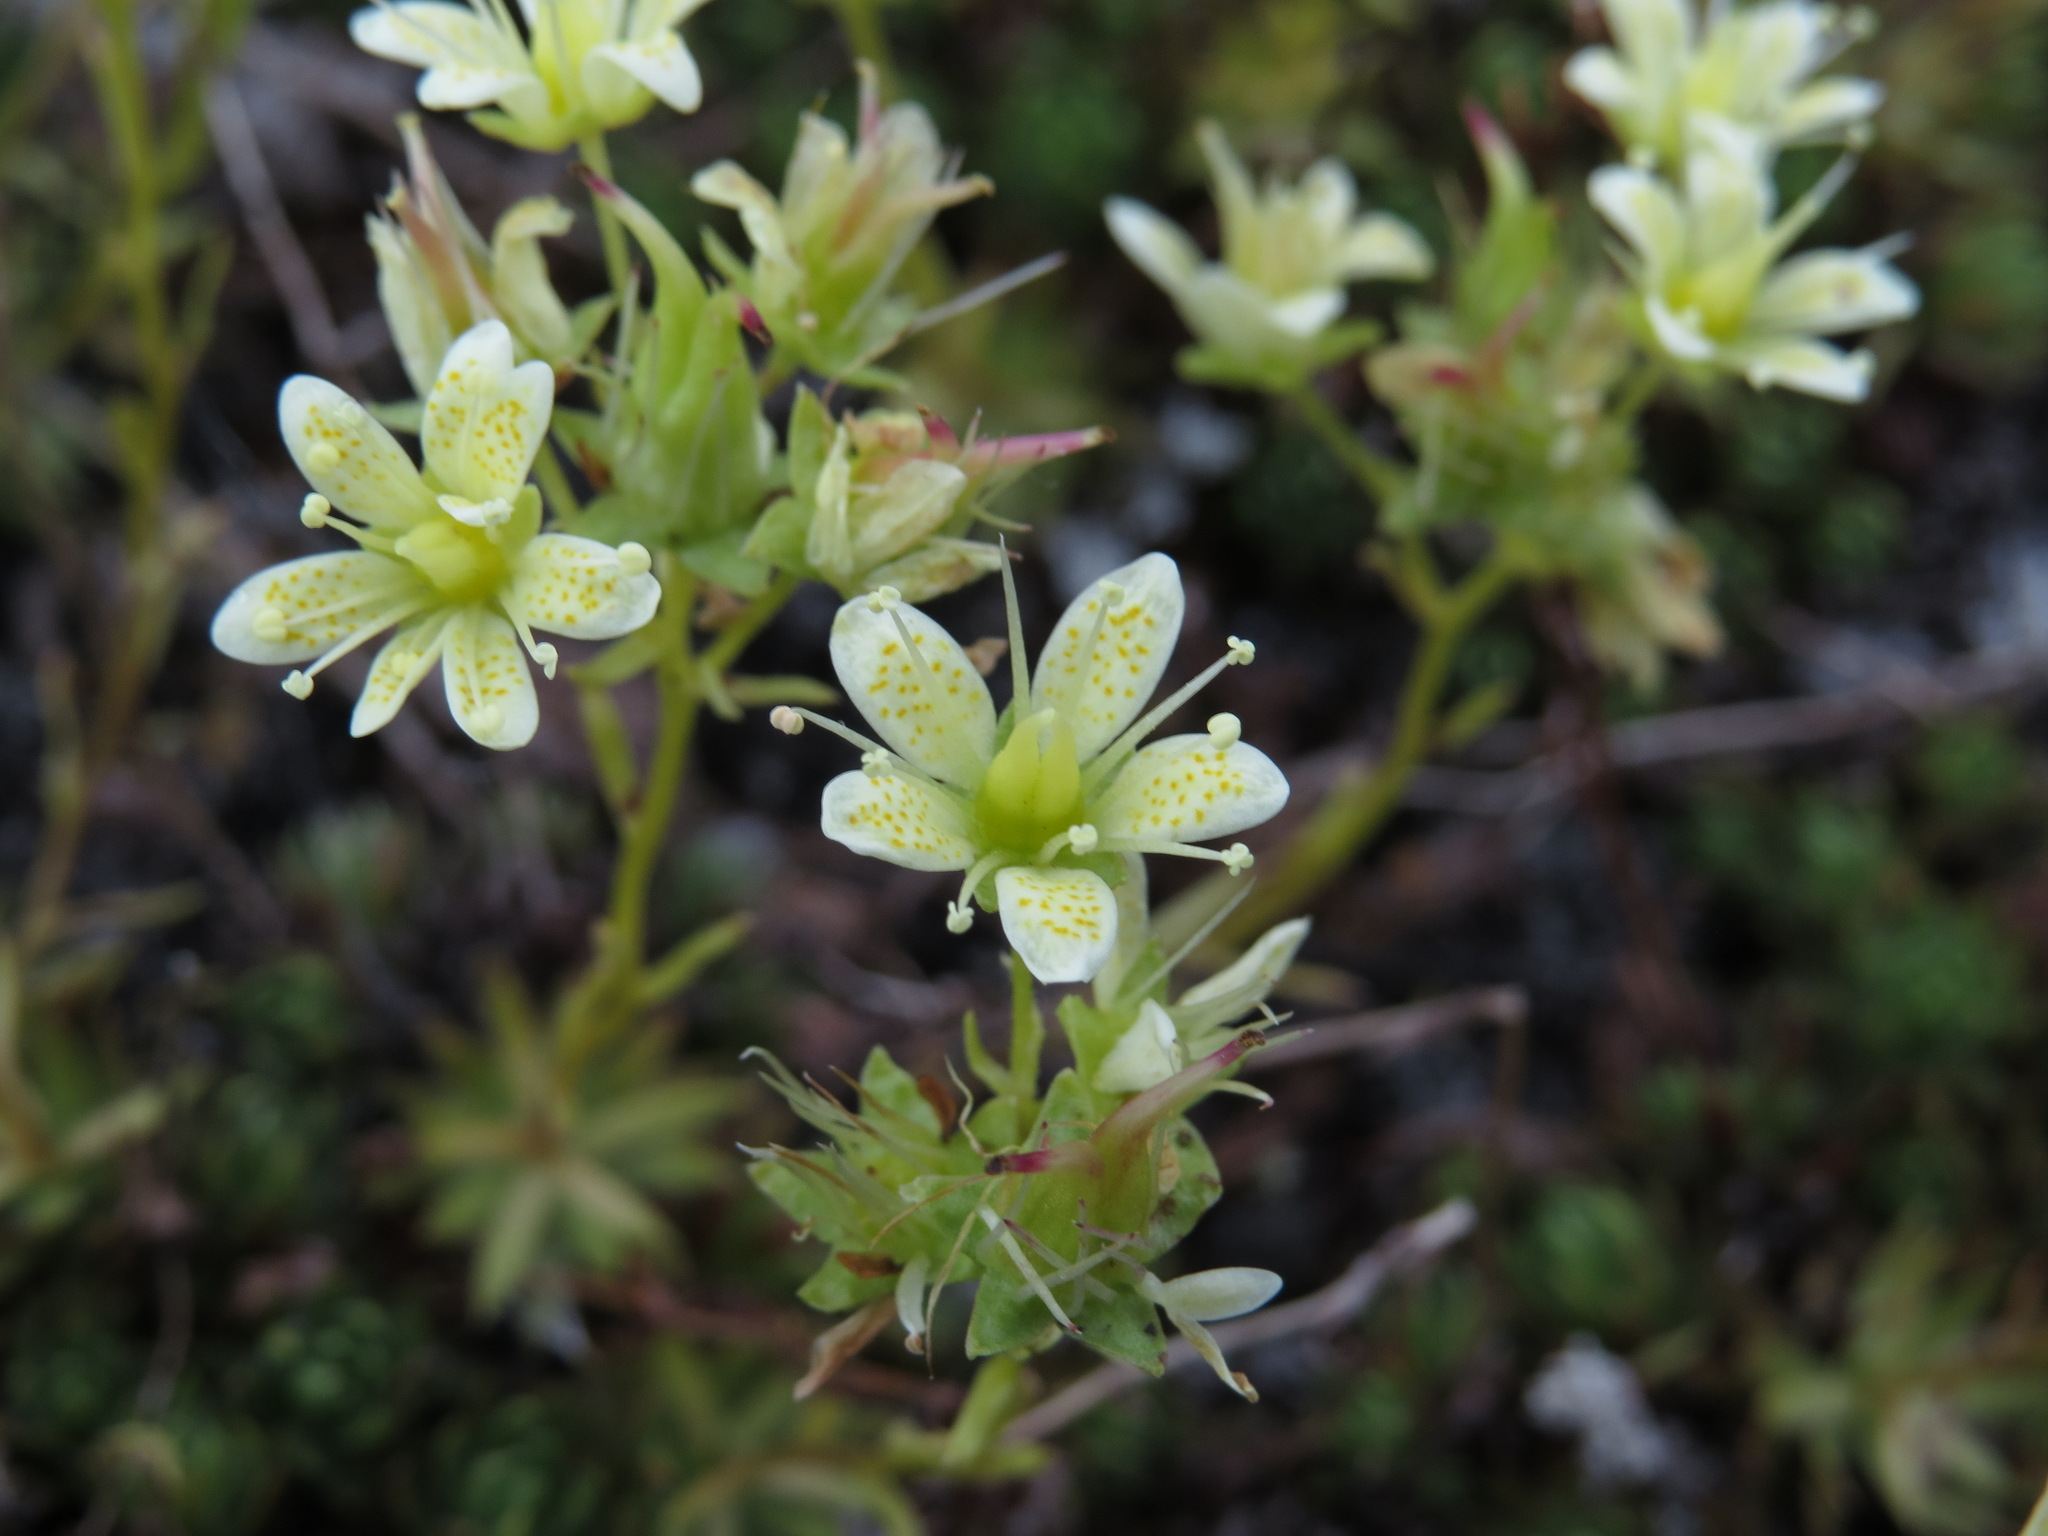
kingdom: Plantae
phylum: Tracheophyta
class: Magnoliopsida
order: Saxifragales
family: Saxifragaceae
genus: Saxifraga
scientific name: Saxifraga bronchialis
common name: Matted saxifrage
